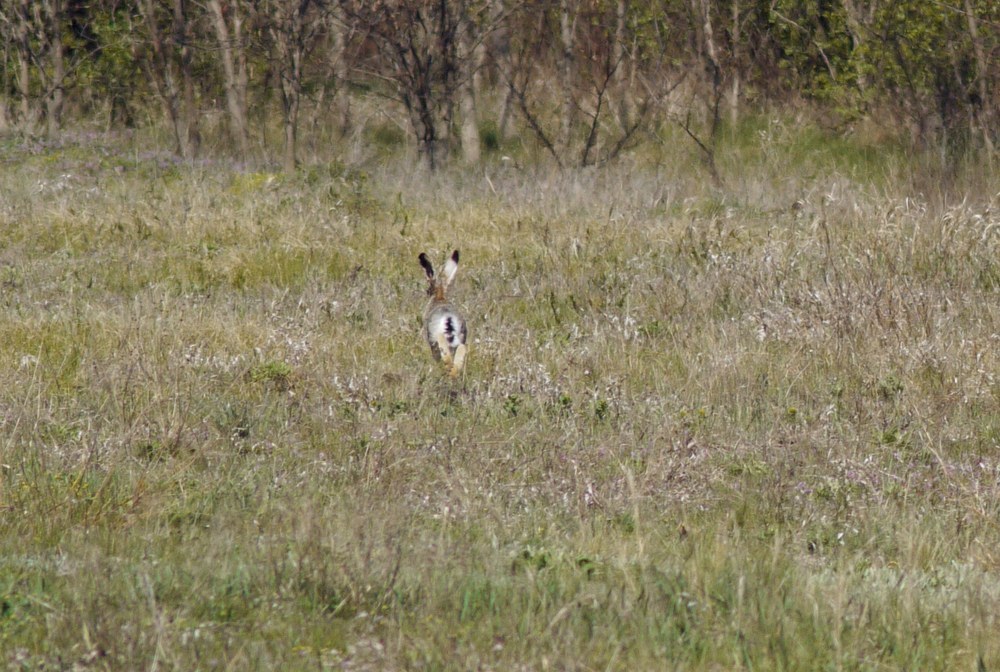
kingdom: Animalia
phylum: Chordata
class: Mammalia
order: Lagomorpha
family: Leporidae
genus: Lepus
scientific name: Lepus europaeus
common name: European hare
